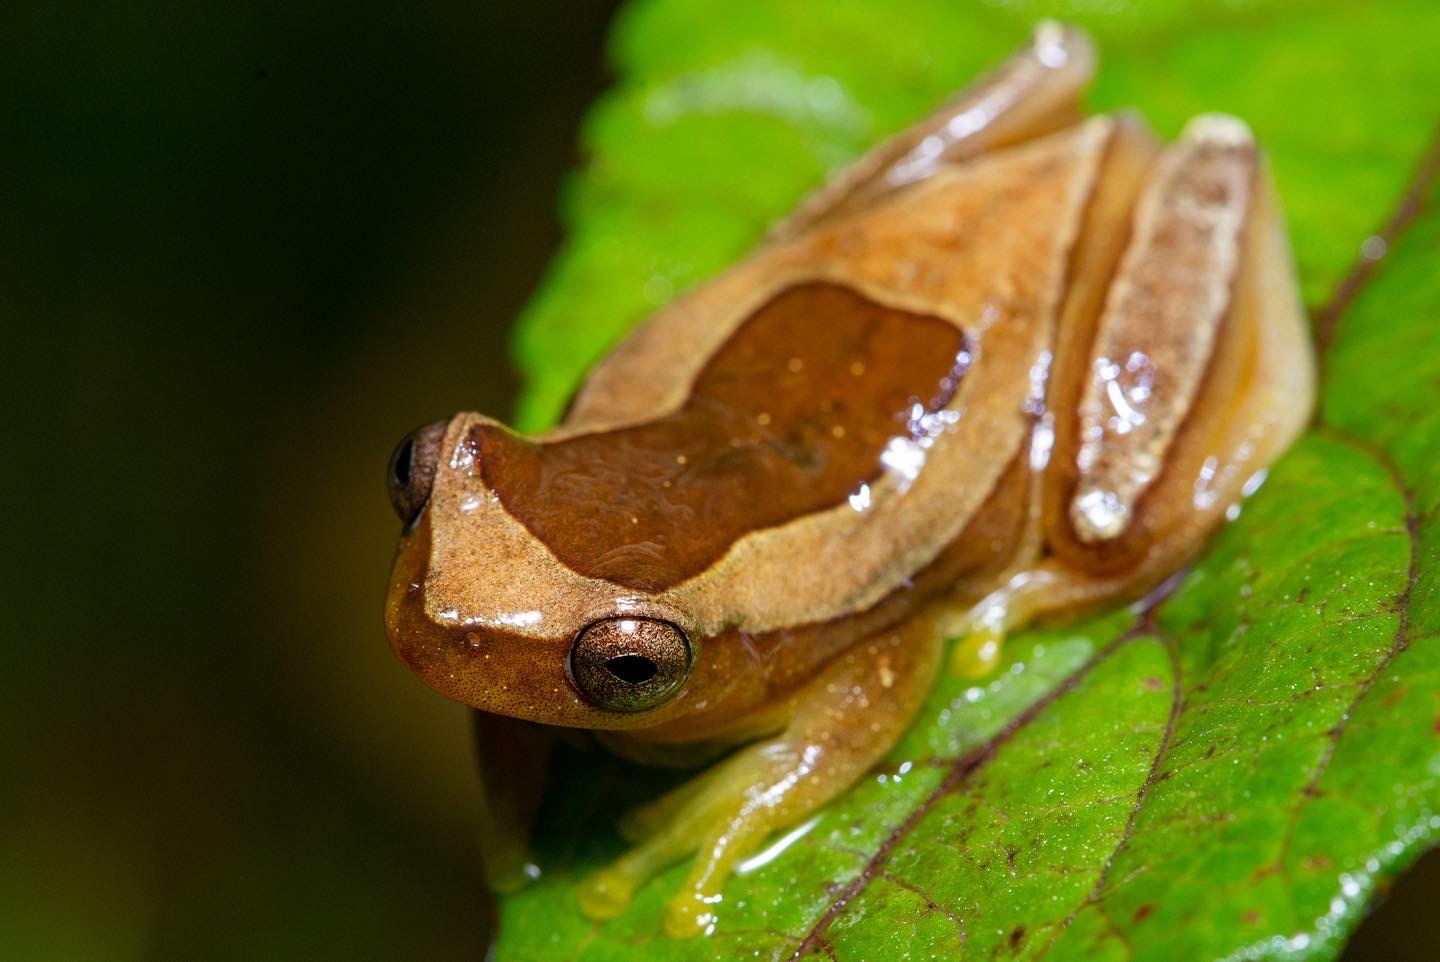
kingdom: Animalia
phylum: Chordata
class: Amphibia
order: Anura
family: Hylidae
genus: Dendropsophus
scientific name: Dendropsophus elegans
